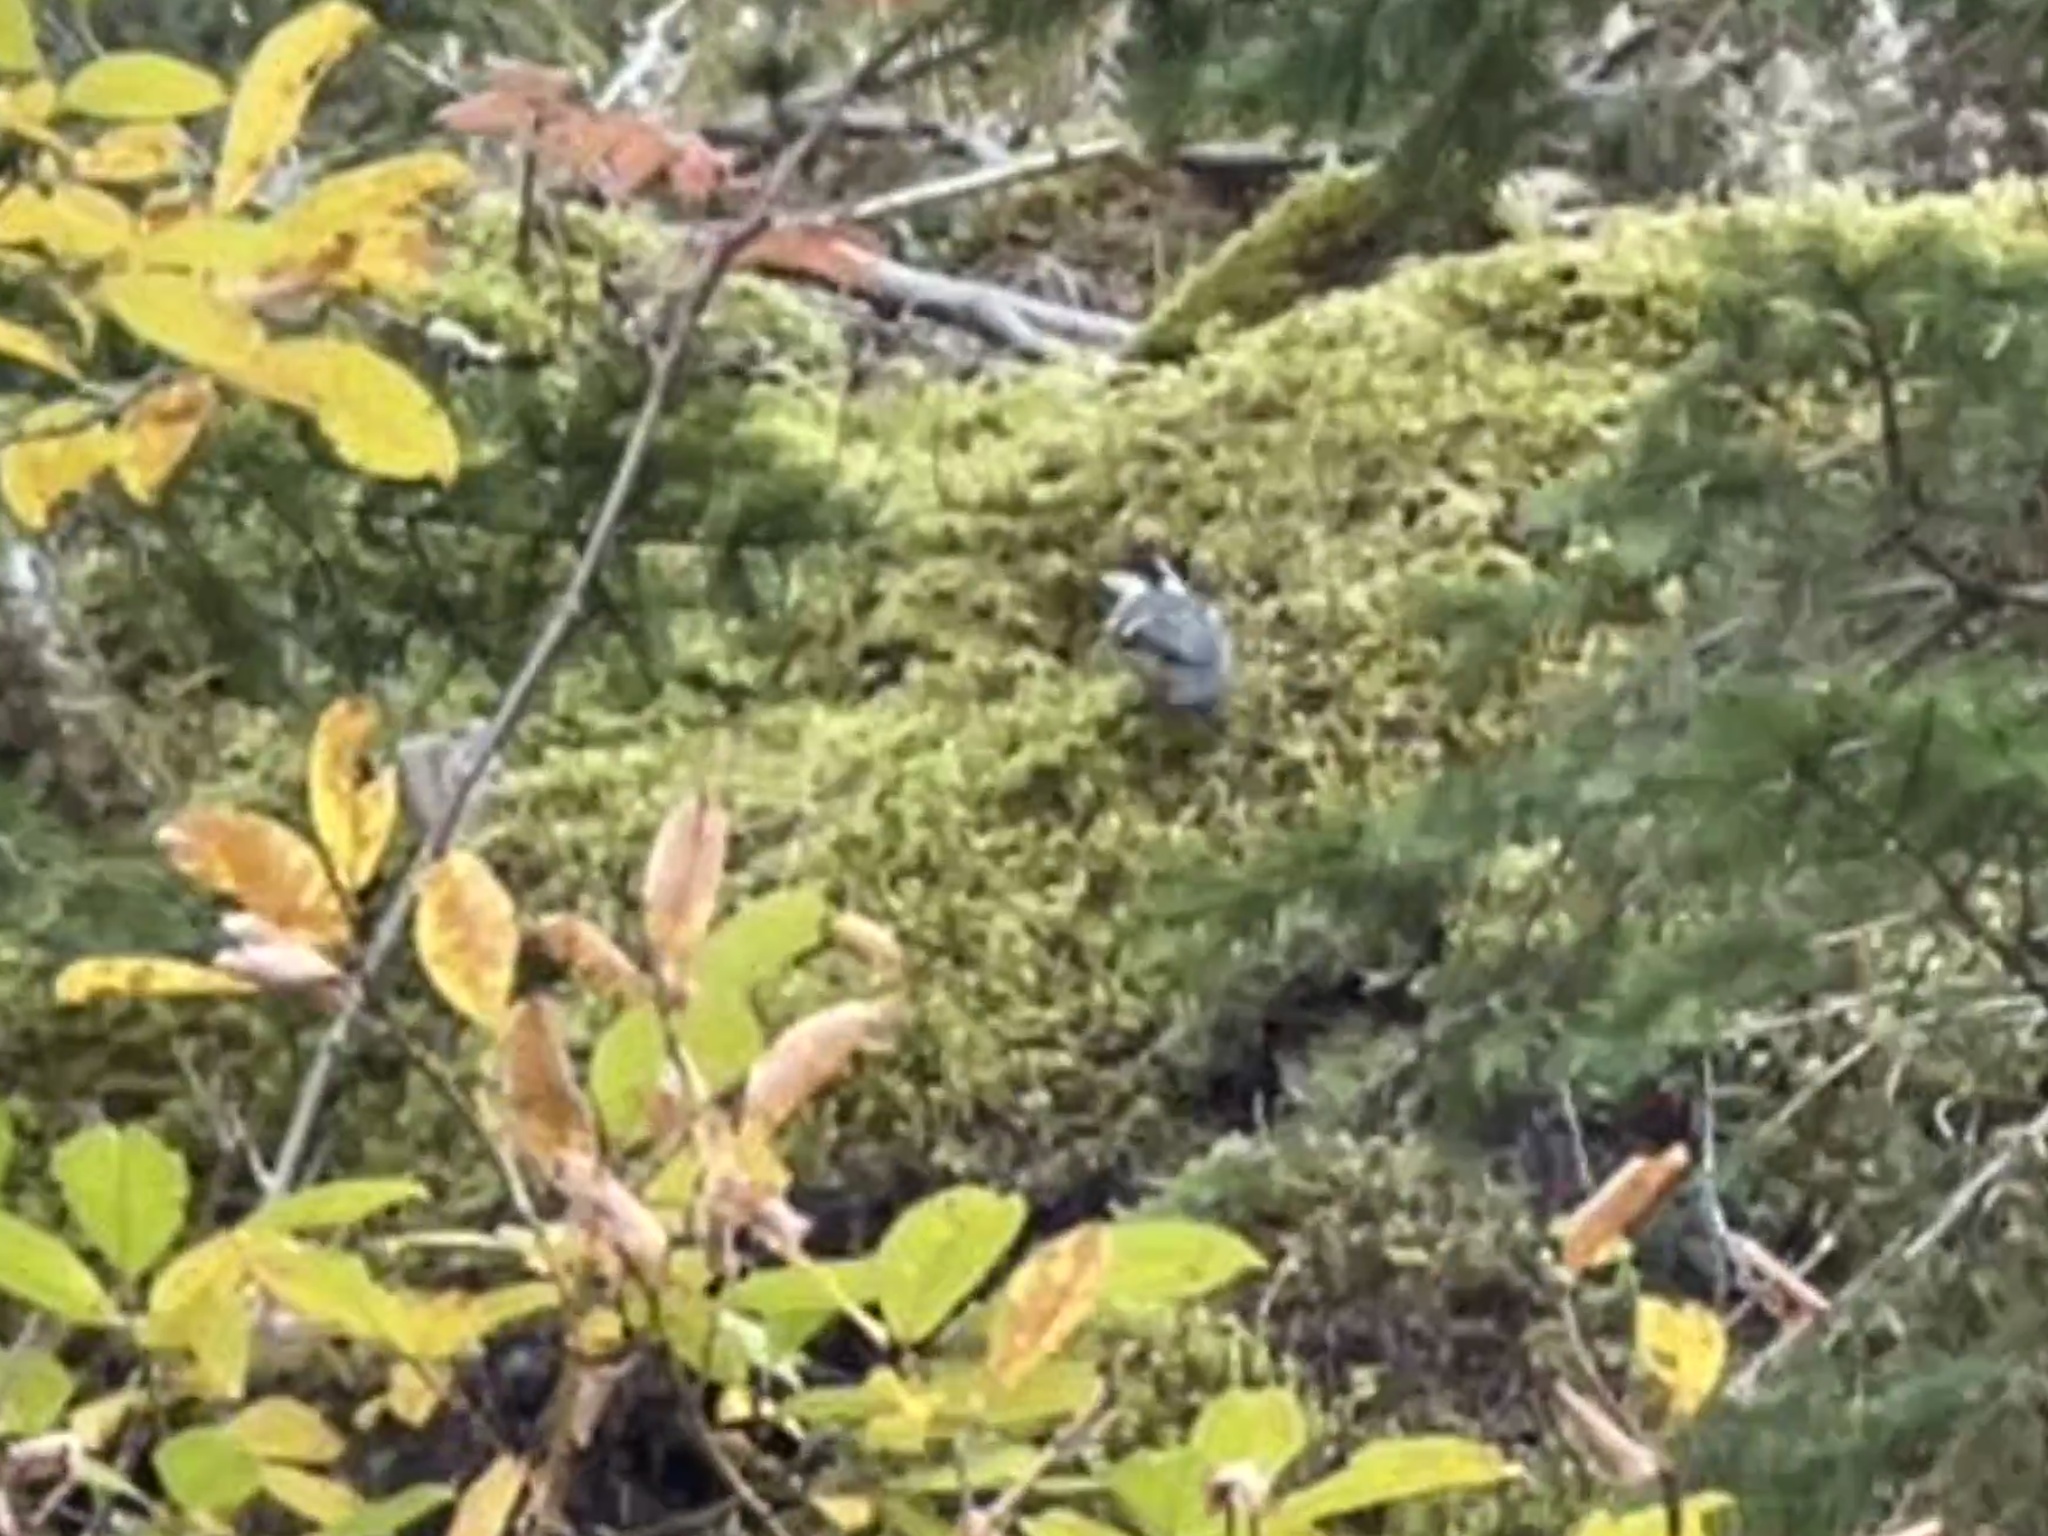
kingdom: Animalia
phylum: Chordata
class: Aves
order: Passeriformes
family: Paridae
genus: Periparus
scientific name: Periparus ater
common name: Coal tit
